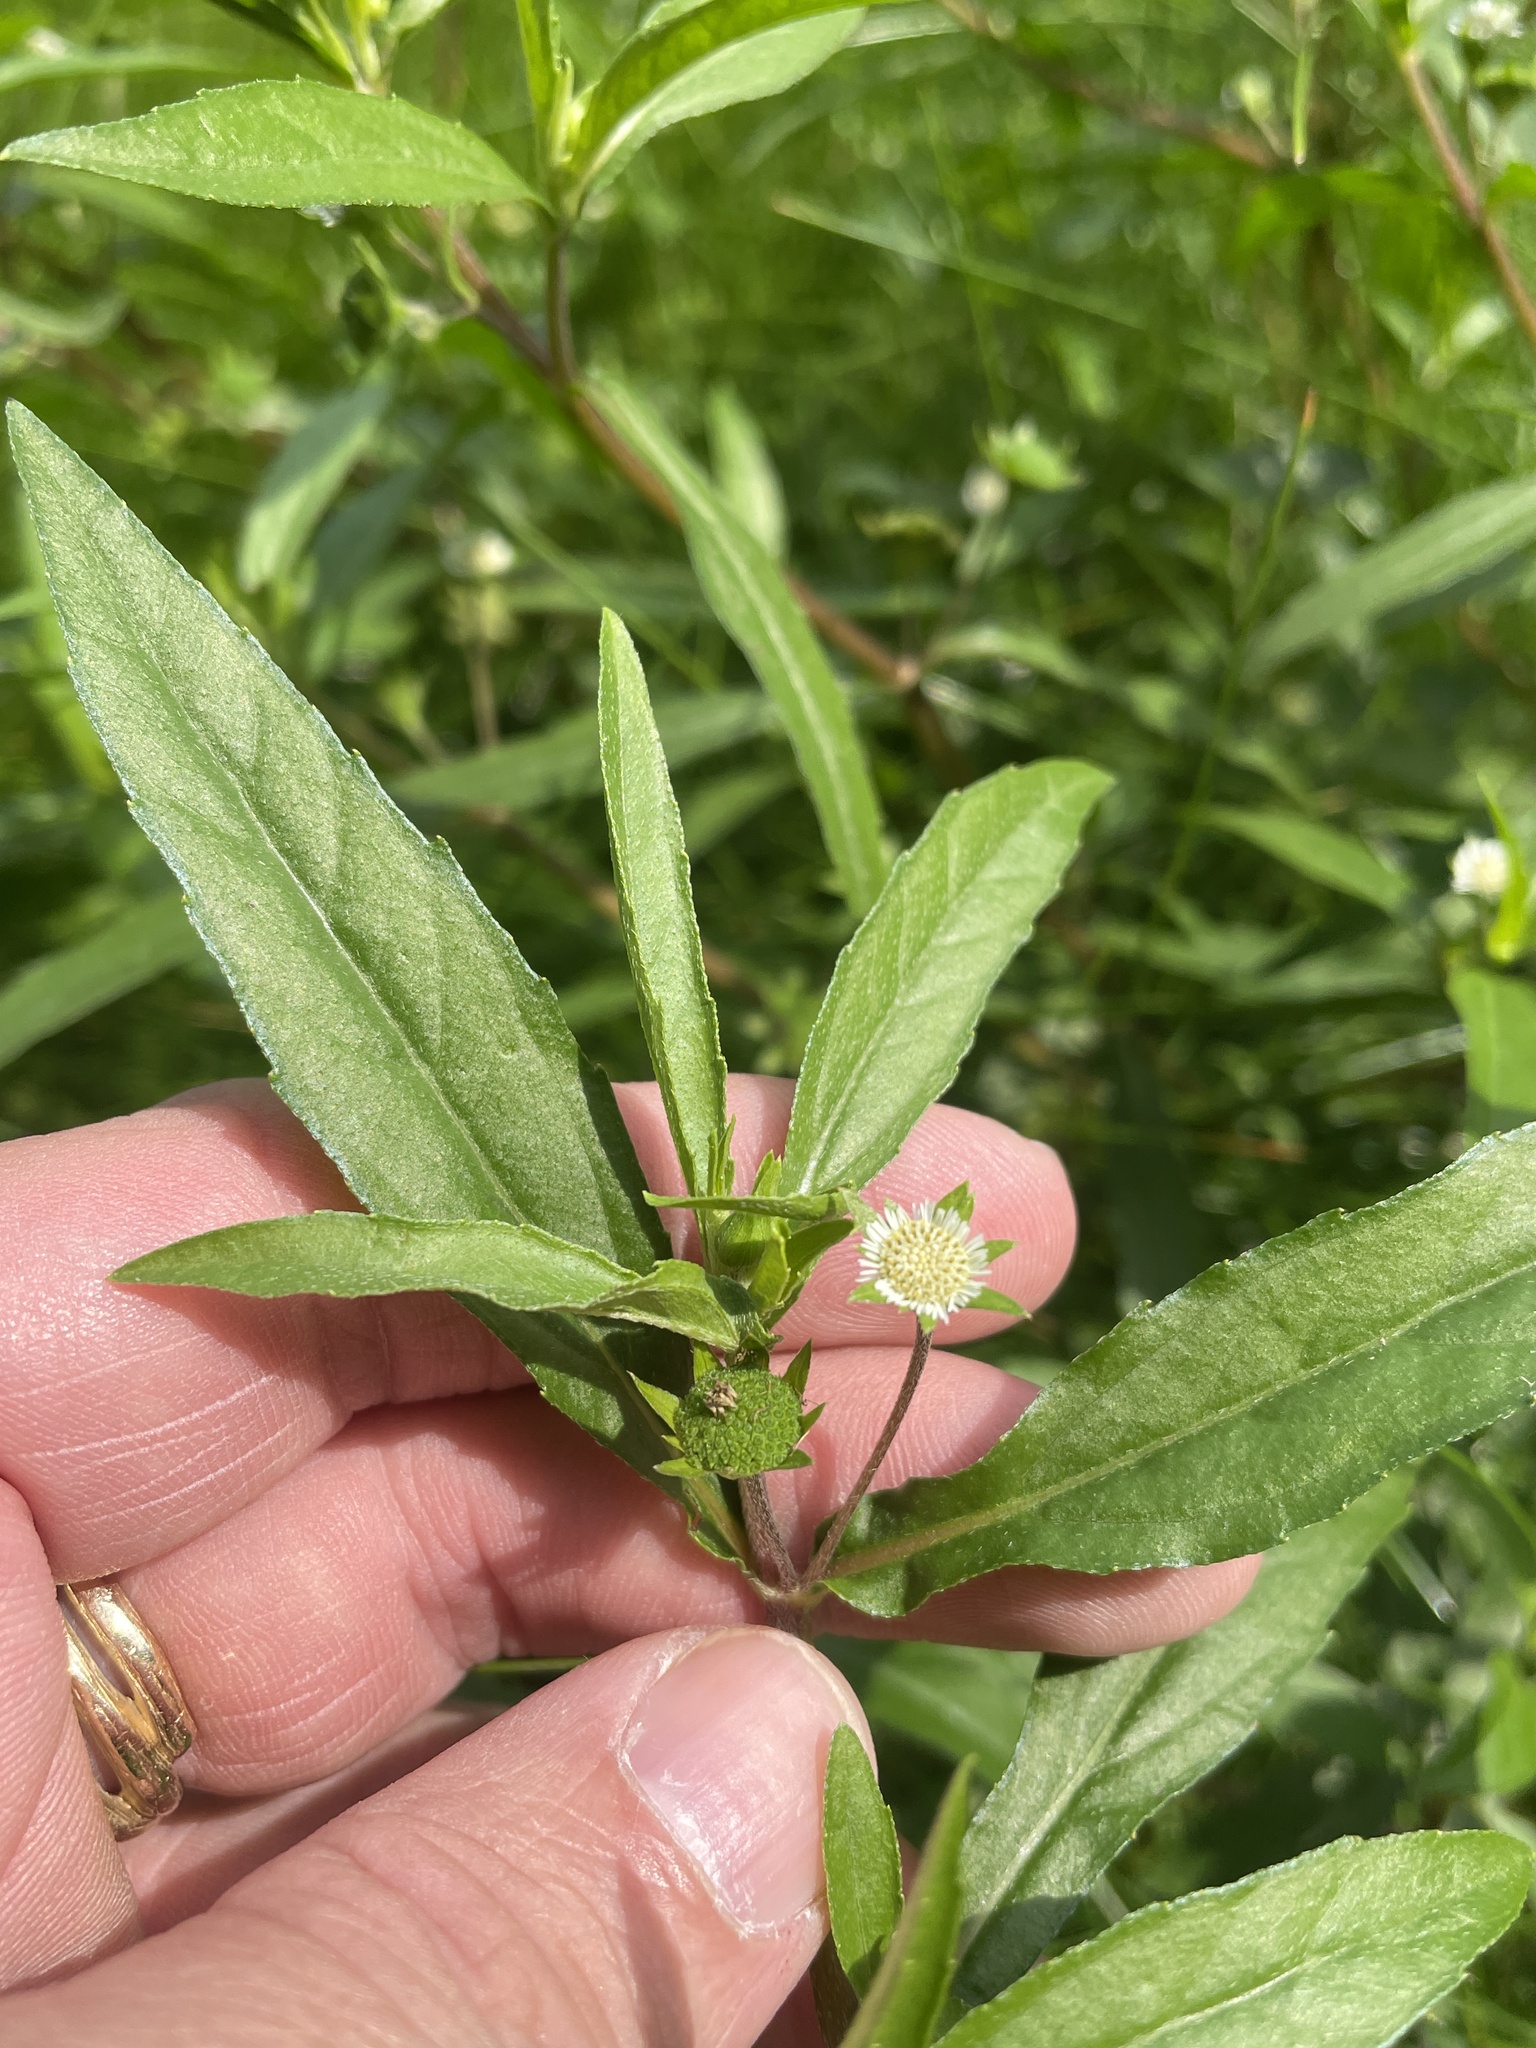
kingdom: Plantae
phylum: Tracheophyta
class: Magnoliopsida
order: Asterales
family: Asteraceae
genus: Eclipta
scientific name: Eclipta prostrata
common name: False daisy
